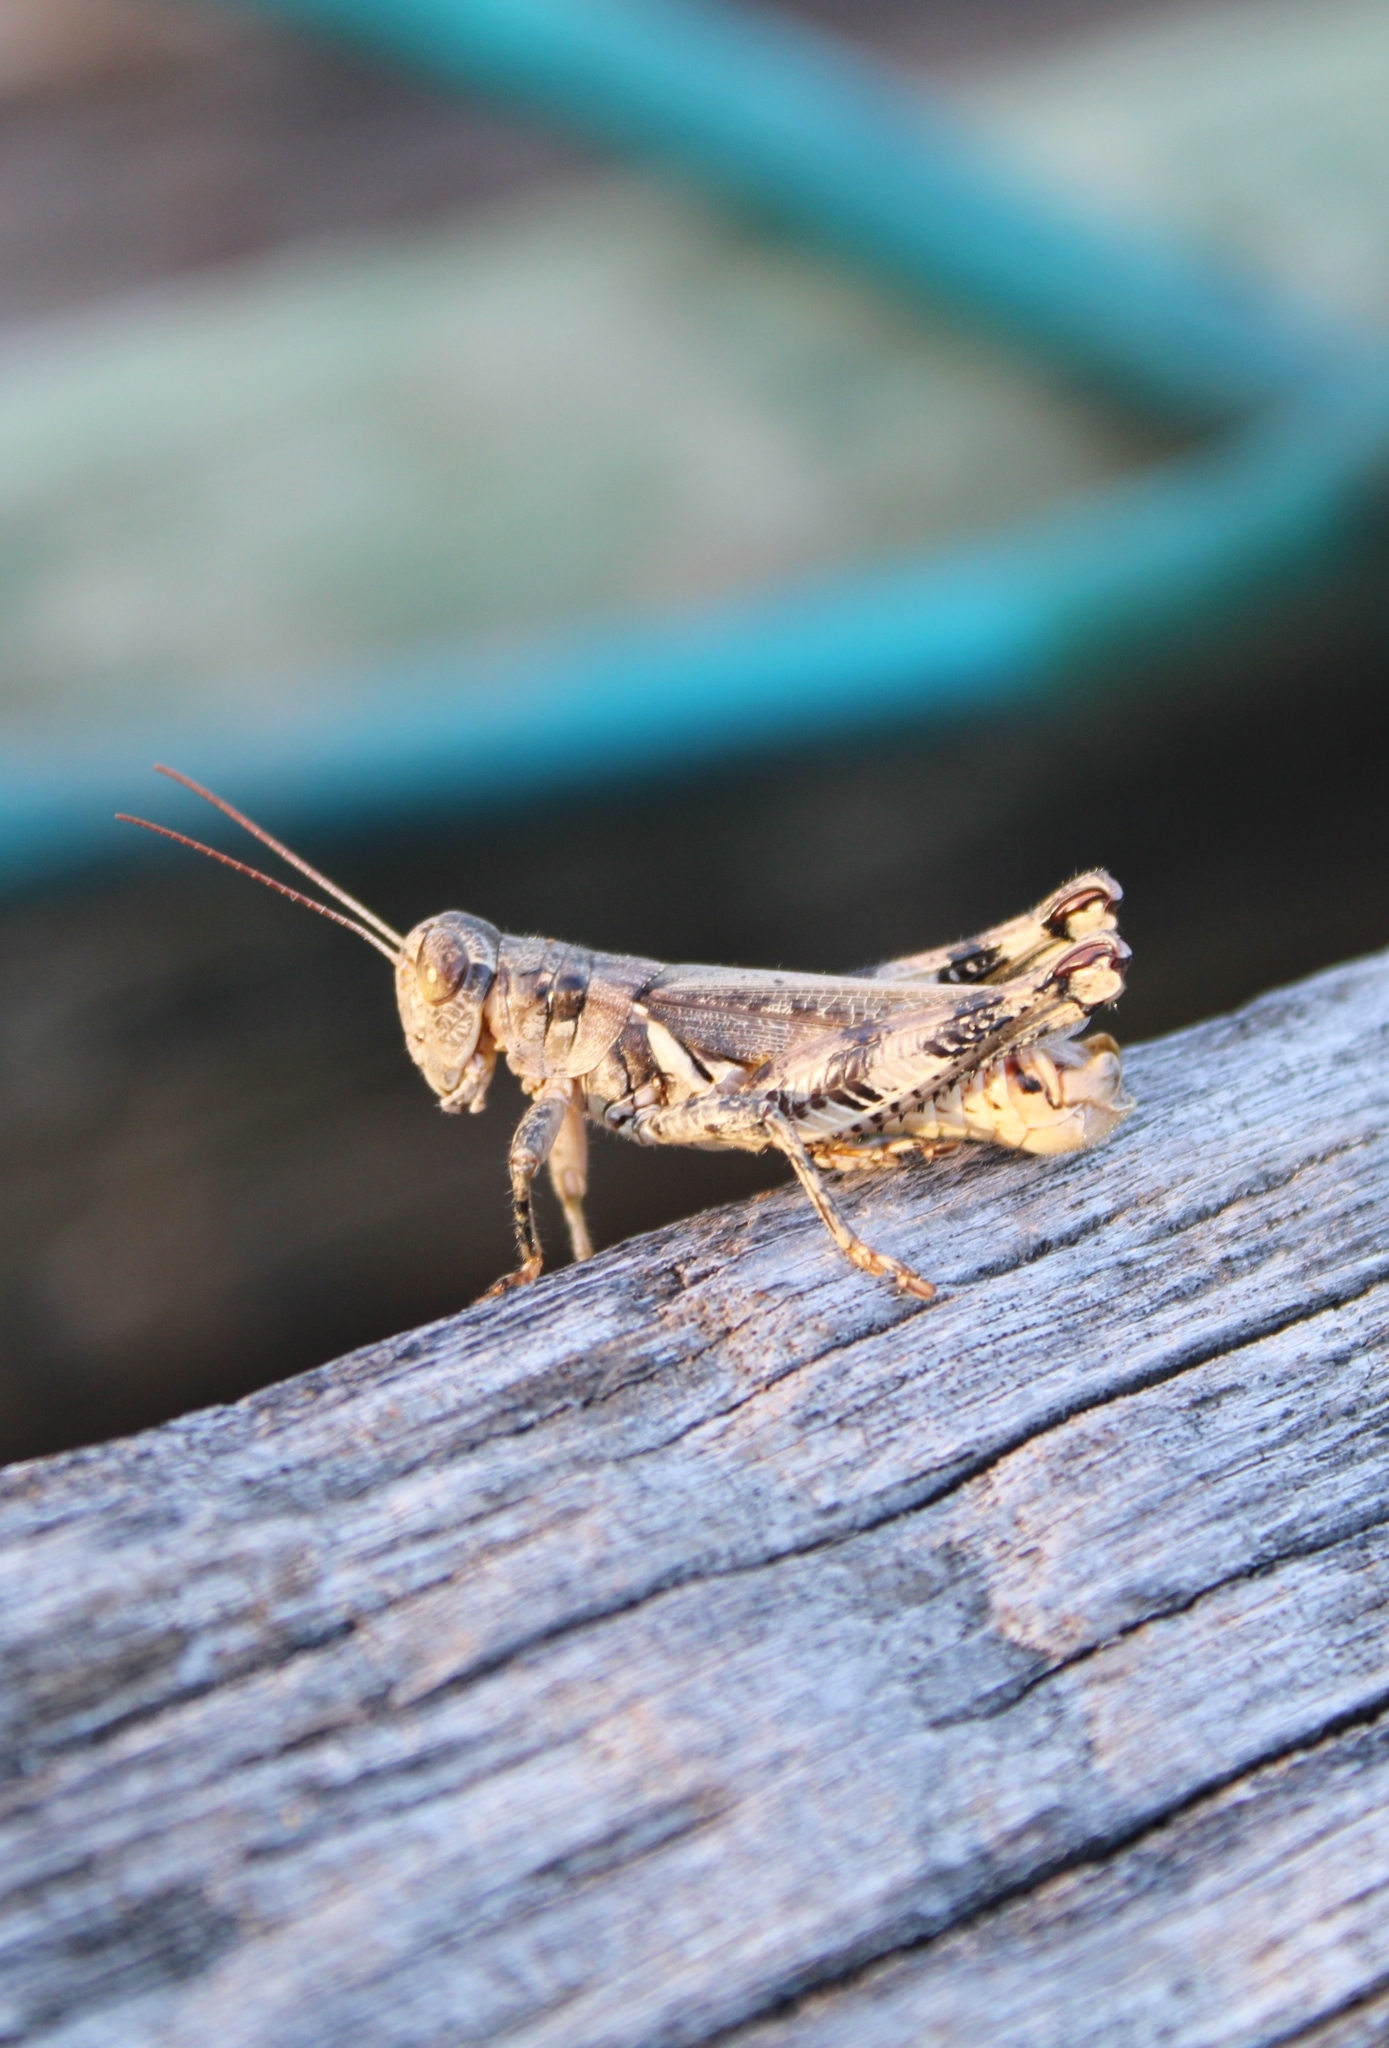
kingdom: Animalia
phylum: Arthropoda
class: Insecta
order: Orthoptera
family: Acrididae
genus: Melanoplus
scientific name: Melanoplus ponderosus
